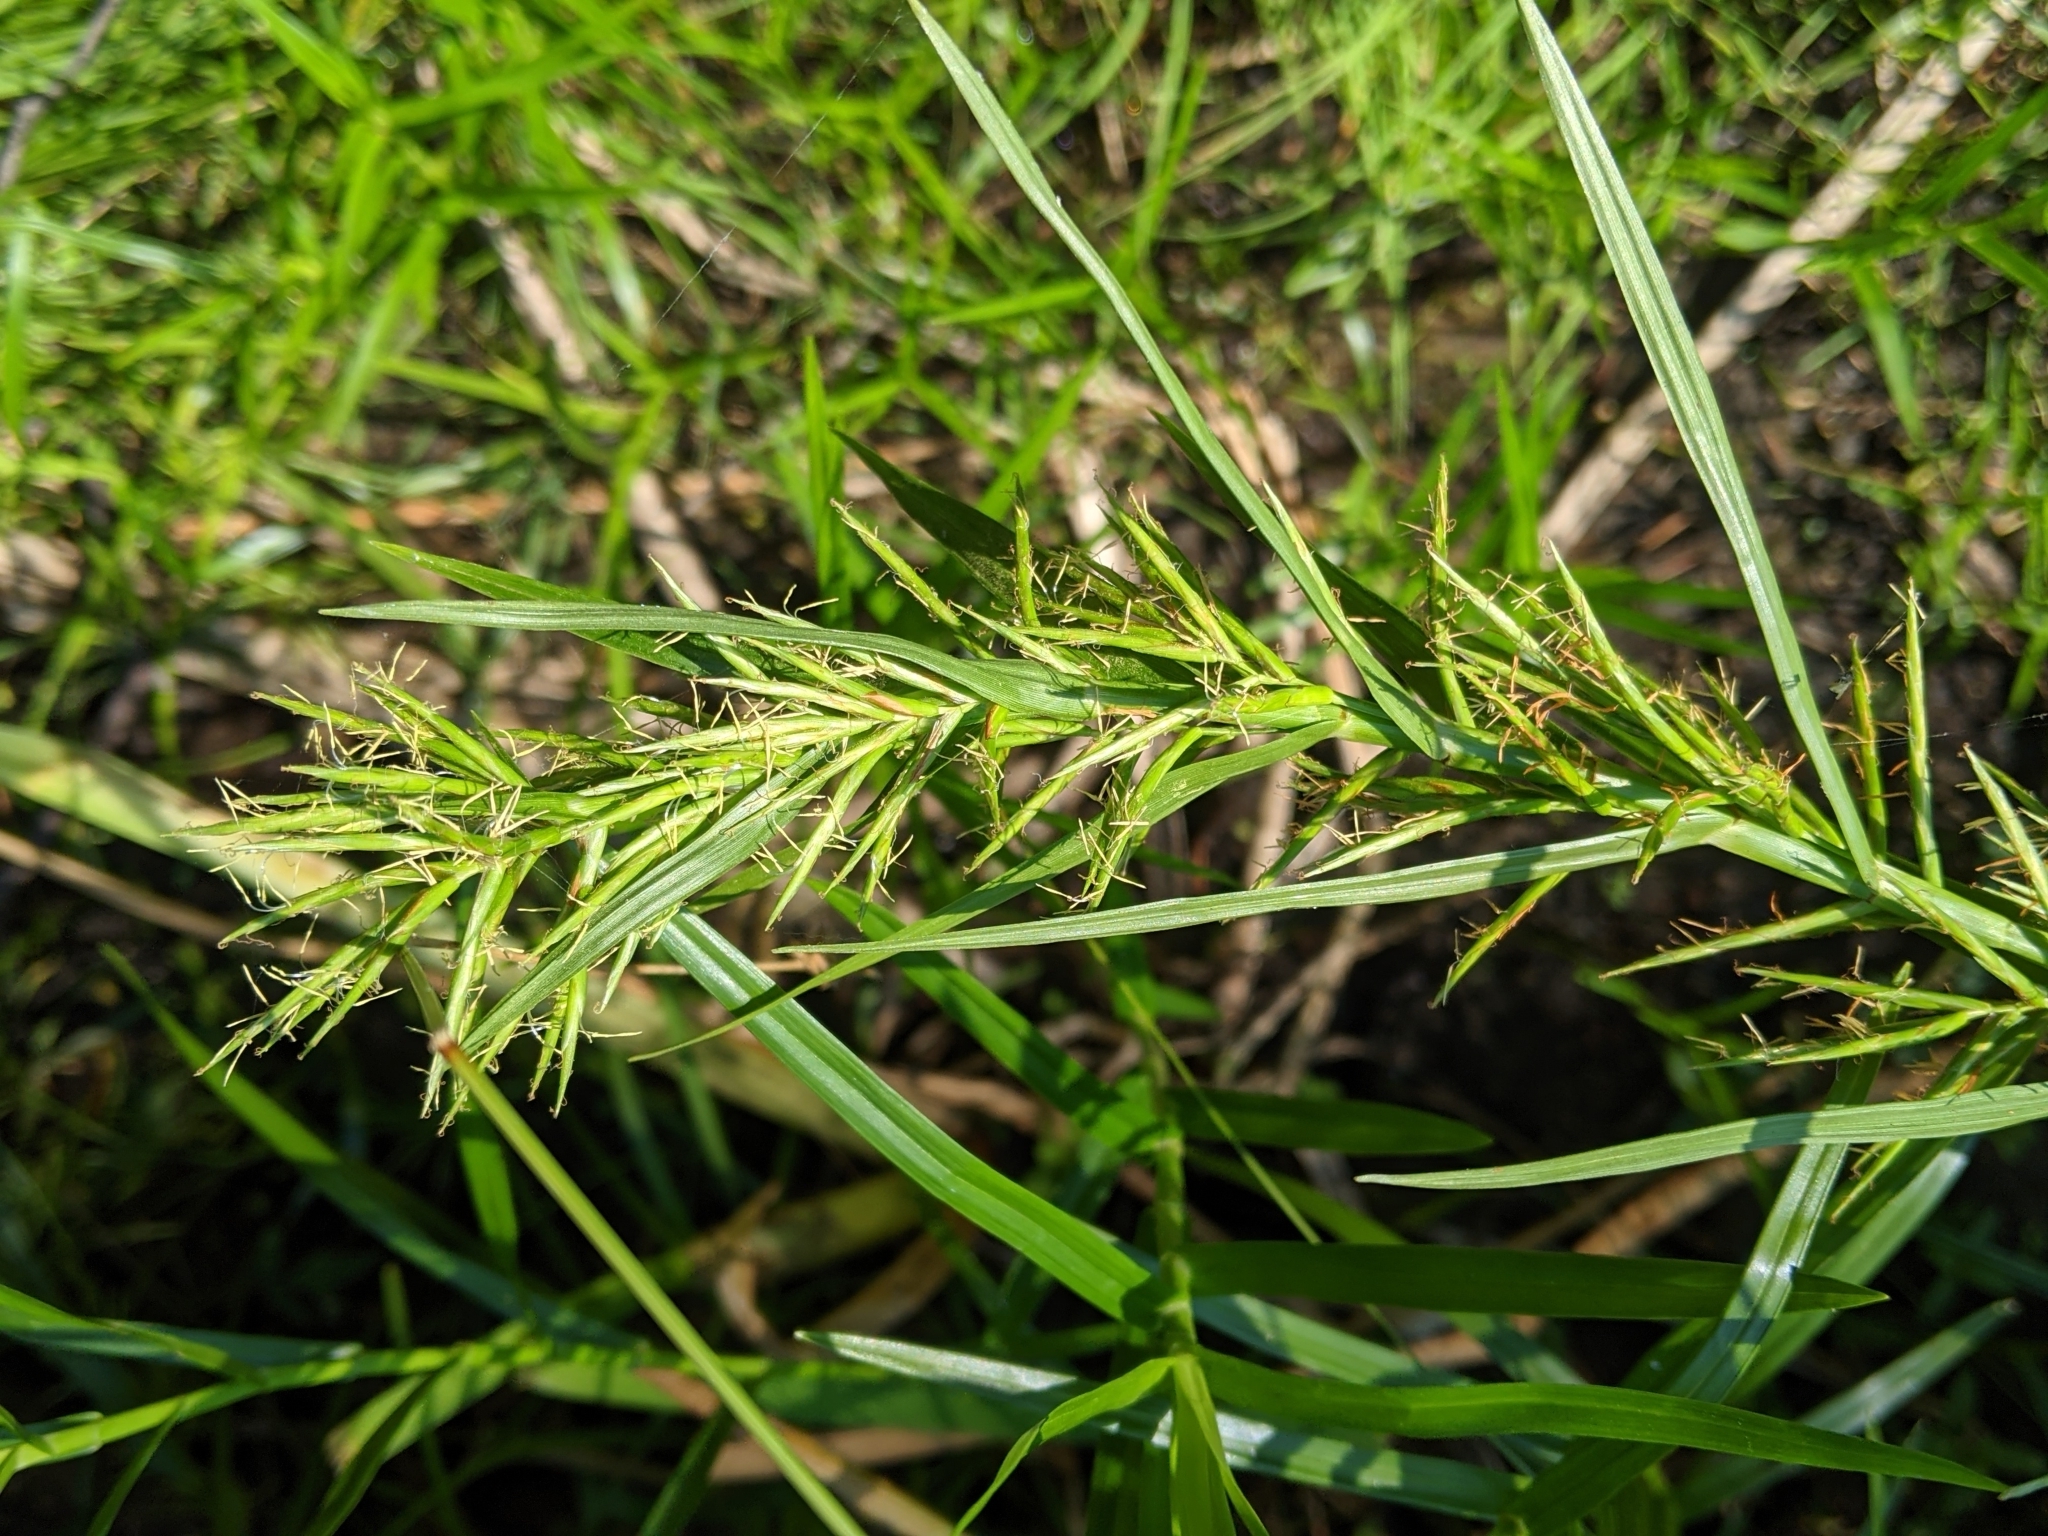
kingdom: Plantae
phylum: Tracheophyta
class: Liliopsida
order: Poales
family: Cyperaceae
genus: Dulichium
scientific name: Dulichium arundinaceum
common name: Three-way sedge
